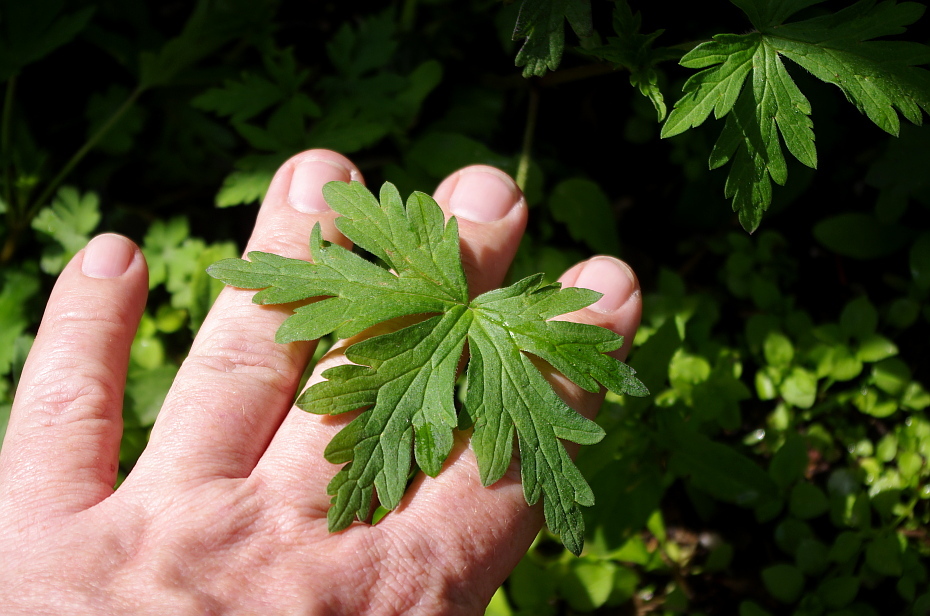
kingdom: Plantae
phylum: Tracheophyta
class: Magnoliopsida
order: Geraniales
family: Geraniaceae
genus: Geranium
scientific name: Geranium sibiricum
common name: Siberian crane's-bill
